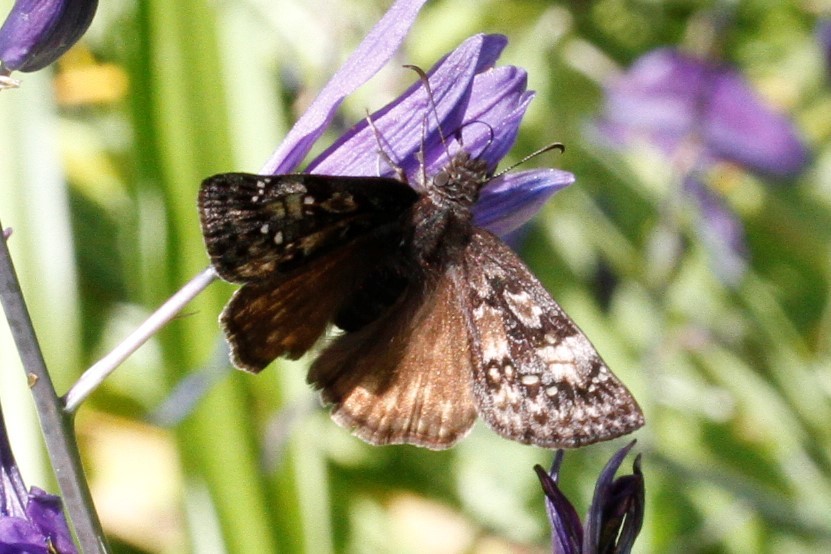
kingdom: Animalia
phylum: Arthropoda
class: Insecta
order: Lepidoptera
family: Hesperiidae
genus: Erynnis
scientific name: Erynnis propertius
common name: Propertius duskywing
